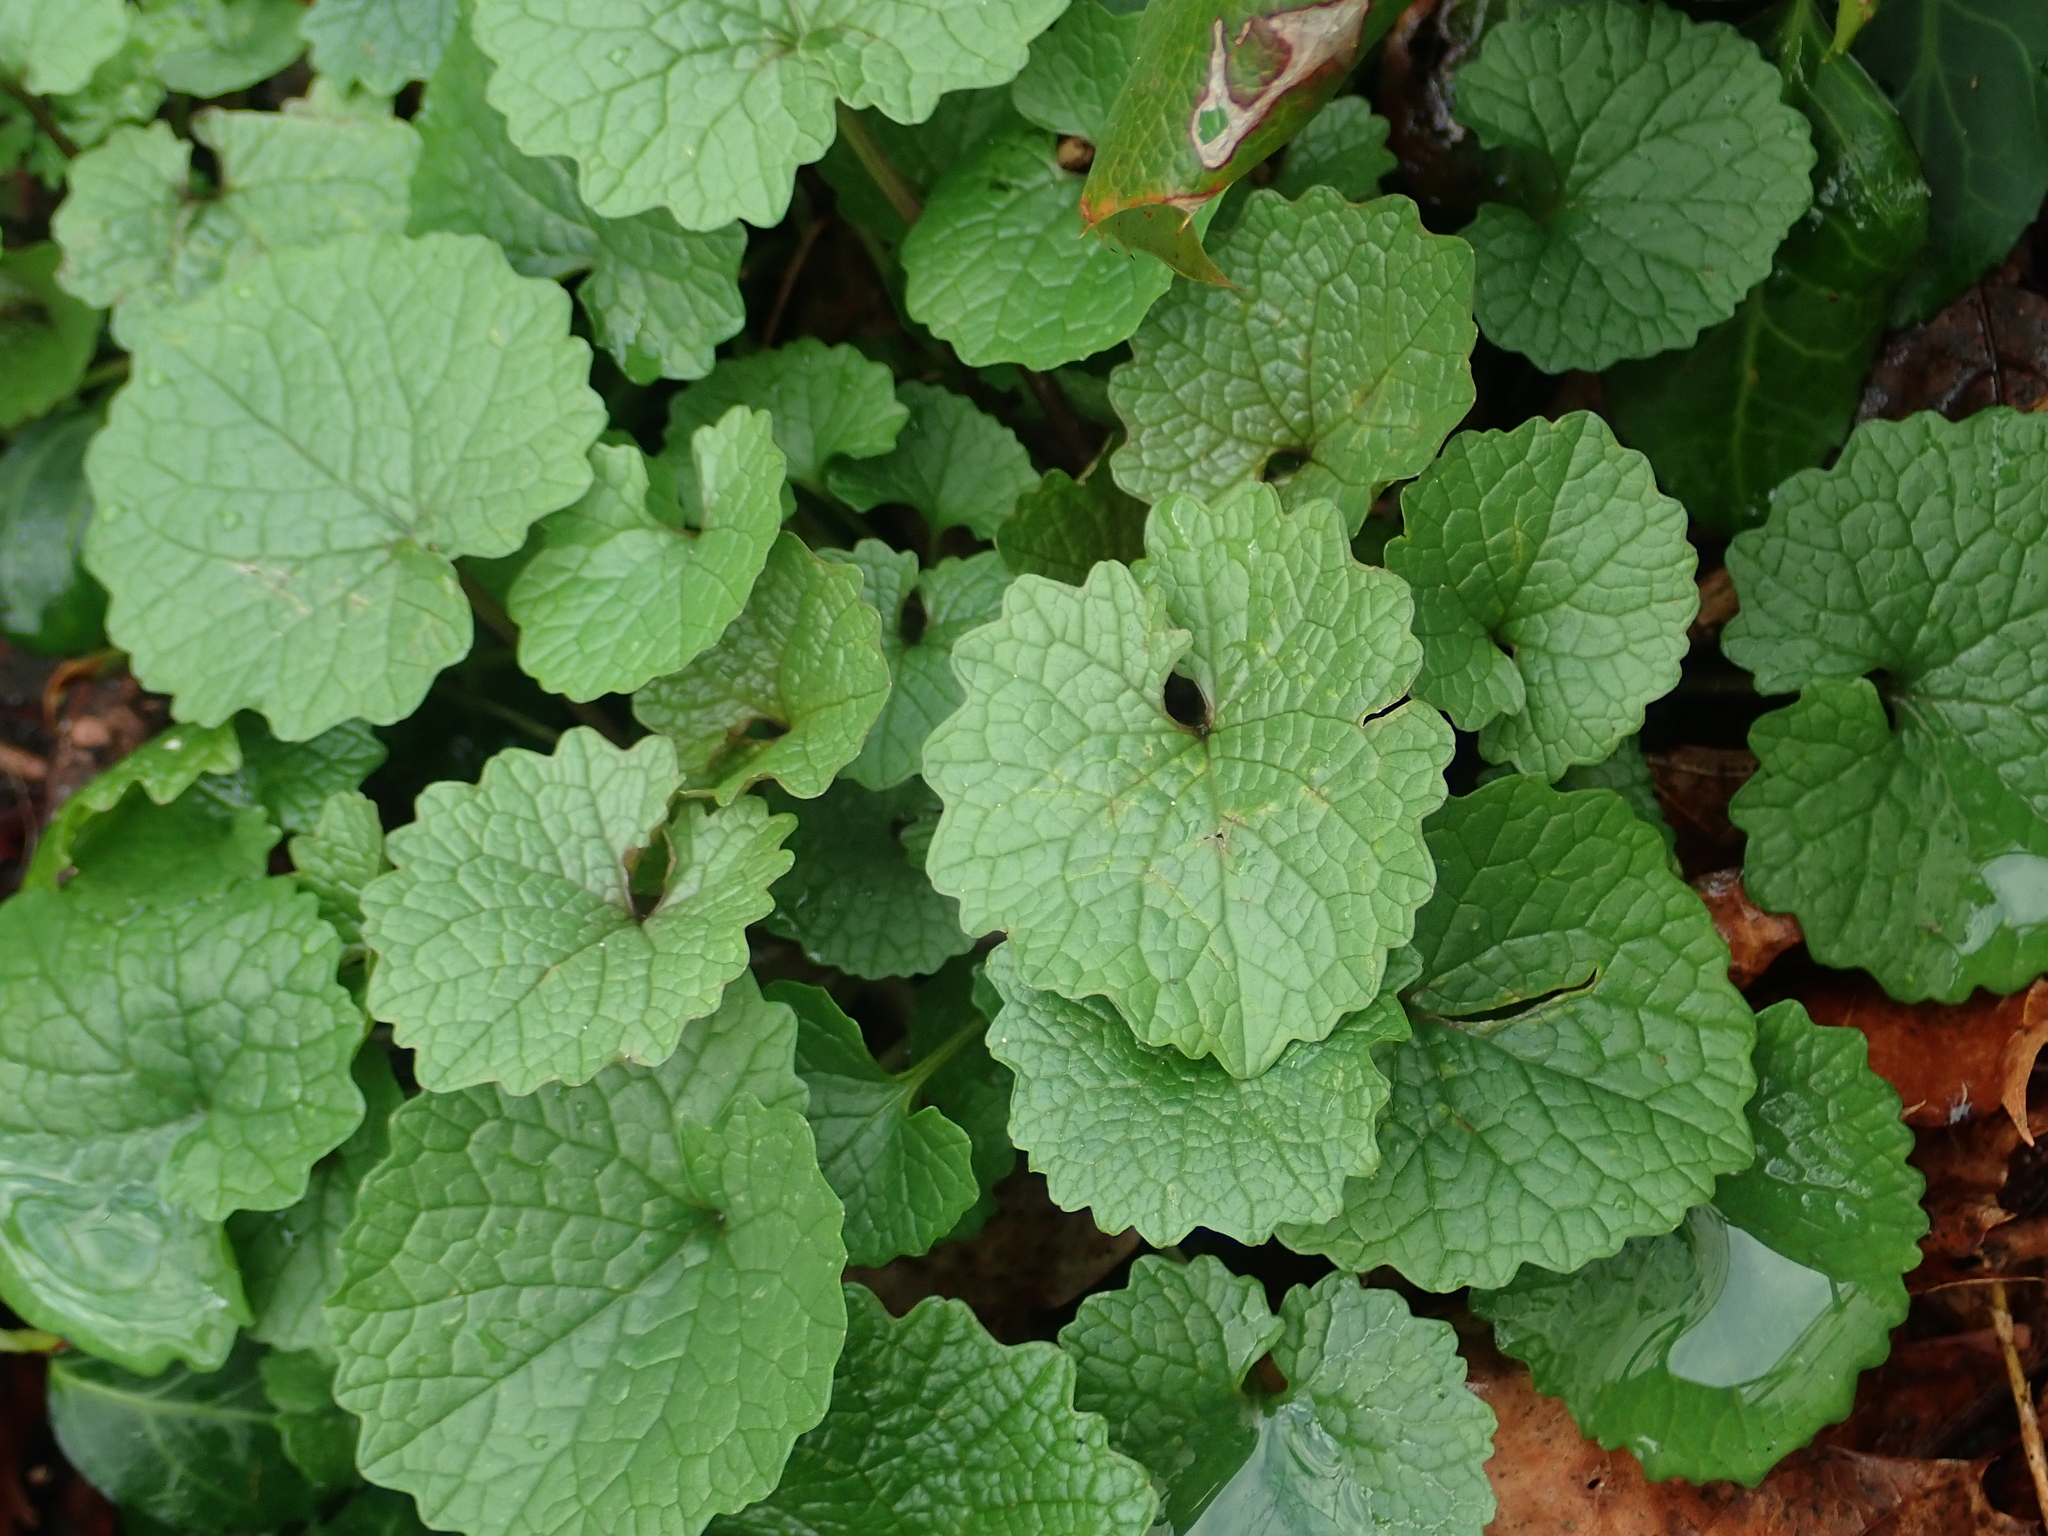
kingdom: Plantae
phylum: Tracheophyta
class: Magnoliopsida
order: Brassicales
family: Brassicaceae
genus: Alliaria
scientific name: Alliaria petiolata
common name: Garlic mustard
